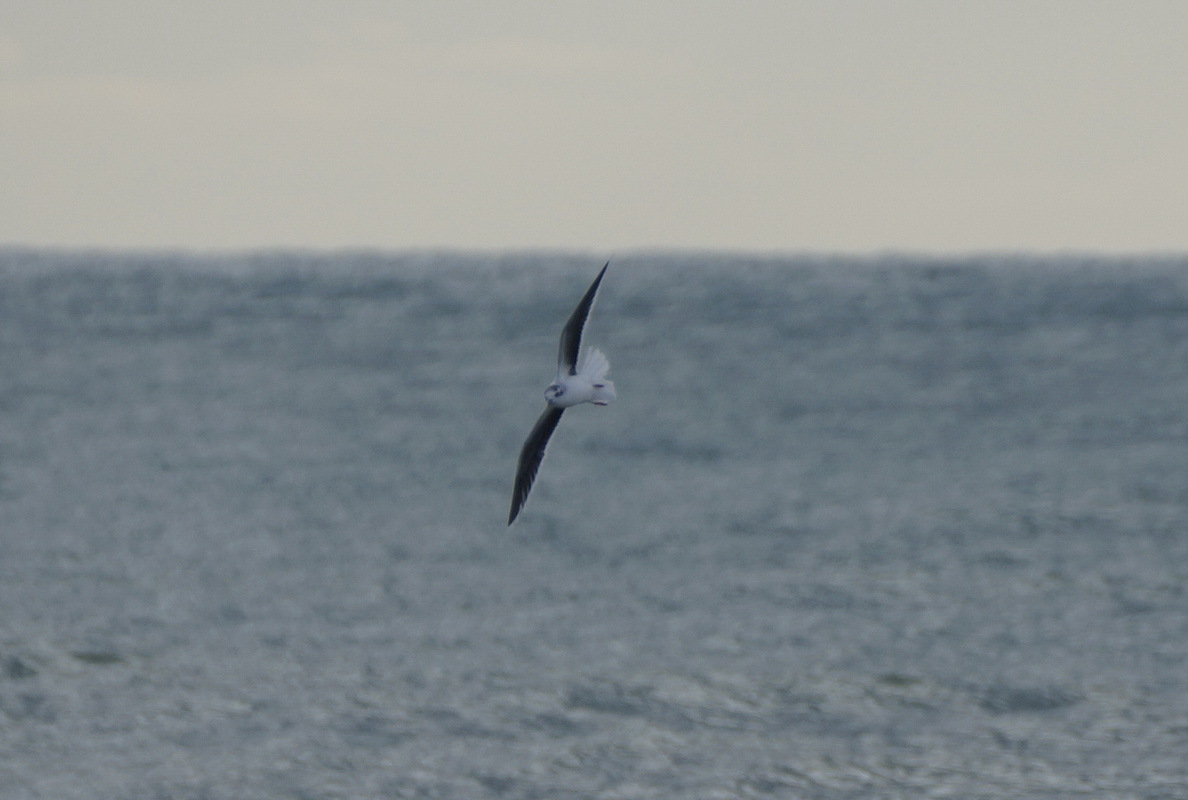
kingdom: Animalia
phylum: Chordata
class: Aves
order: Charadriiformes
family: Laridae
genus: Hydrocoloeus
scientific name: Hydrocoloeus minutus
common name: Little gull
